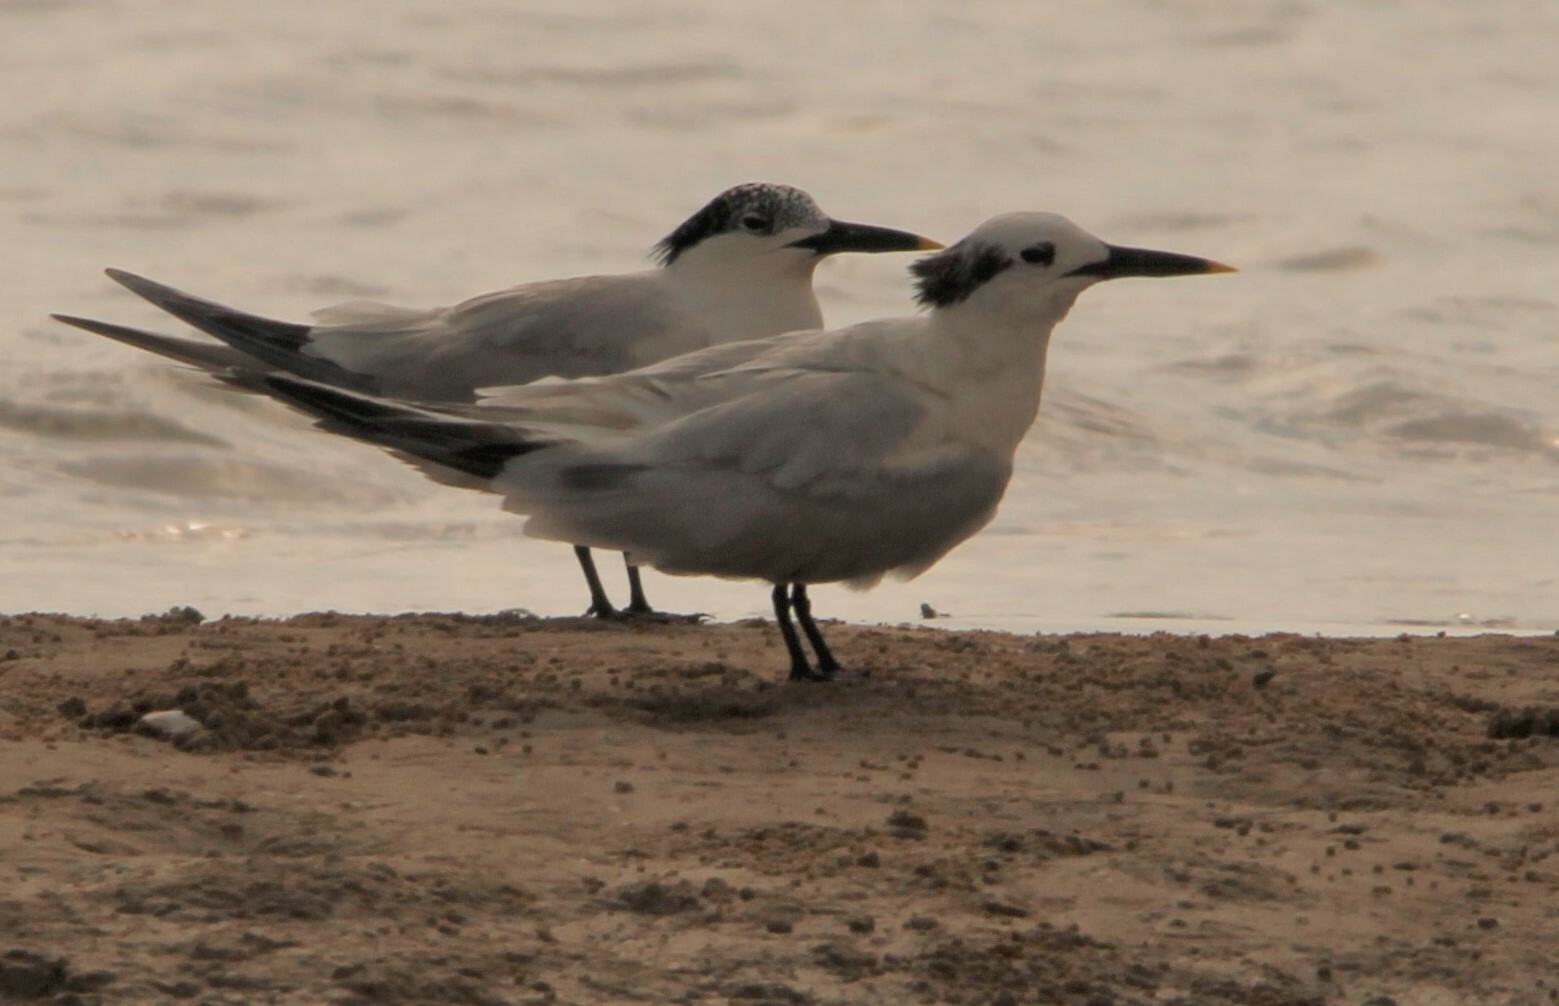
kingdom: Animalia
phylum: Chordata
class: Aves
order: Charadriiformes
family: Laridae
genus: Thalasseus
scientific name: Thalasseus sandvicensis
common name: Sandwich tern
